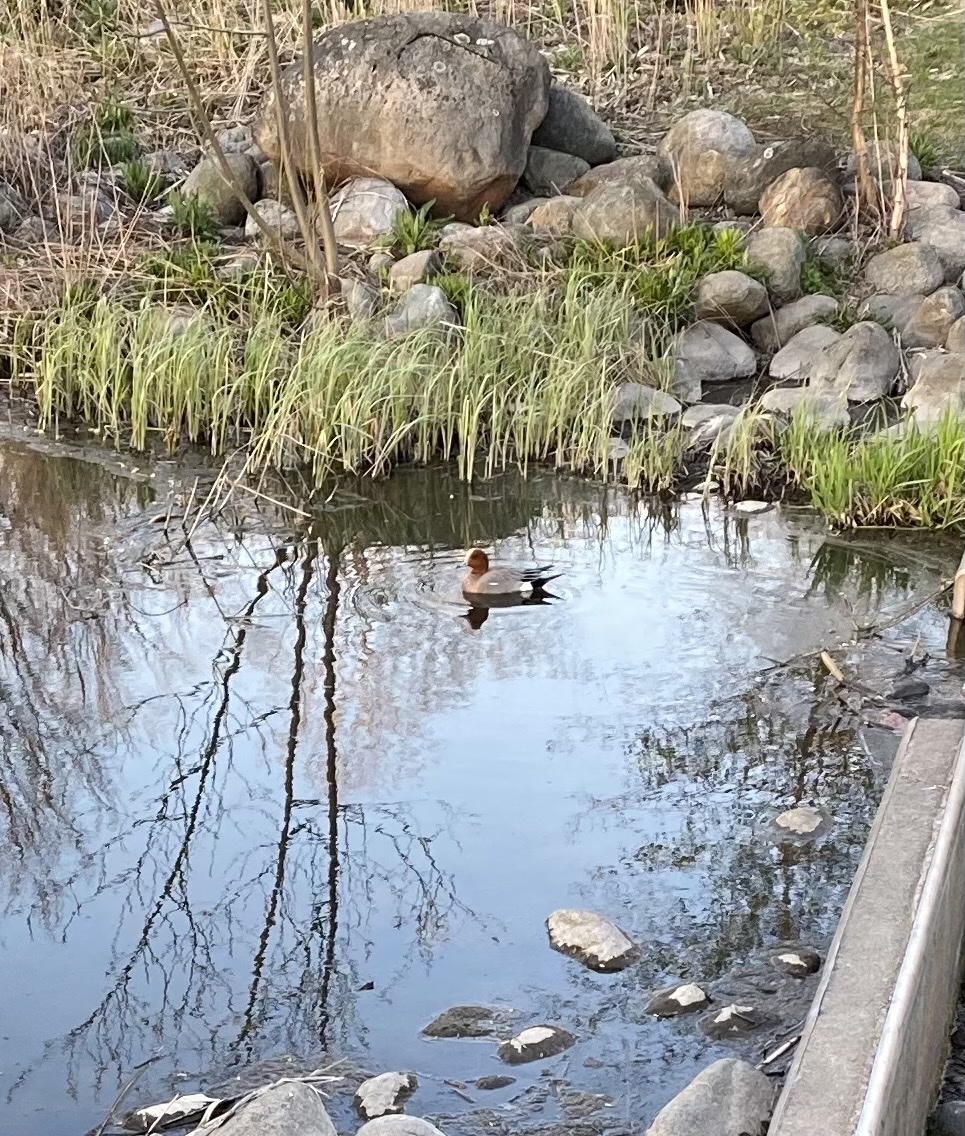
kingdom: Animalia
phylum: Chordata
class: Aves
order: Anseriformes
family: Anatidae
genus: Mareca
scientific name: Mareca penelope
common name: Eurasian wigeon
